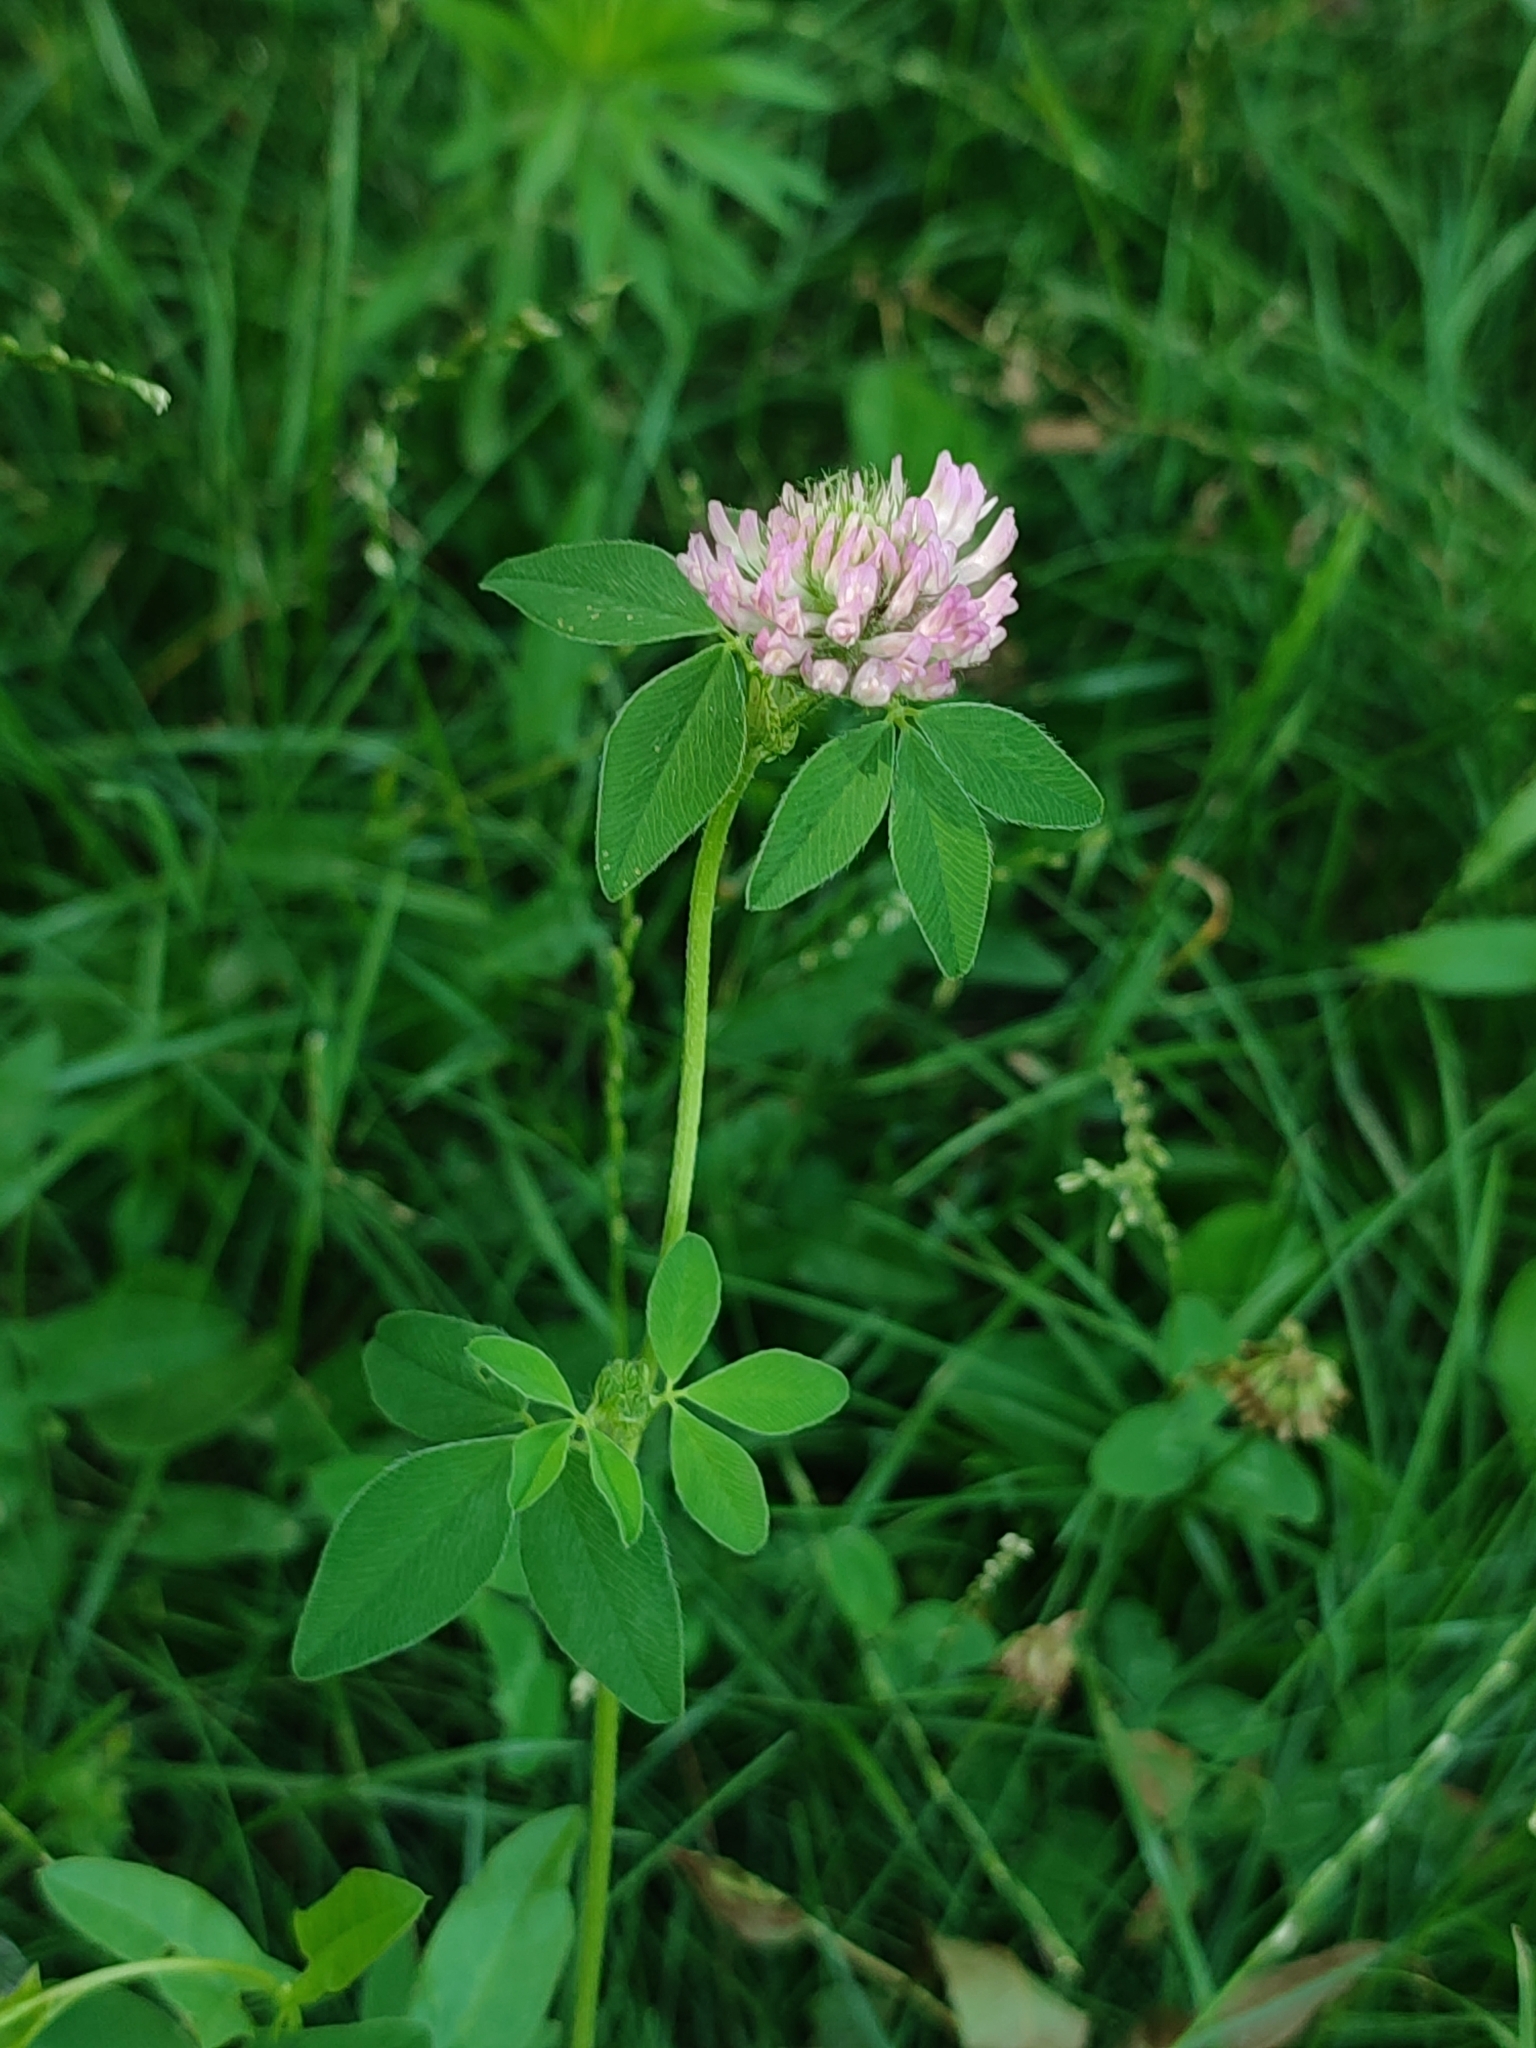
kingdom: Plantae
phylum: Tracheophyta
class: Magnoliopsida
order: Fabales
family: Fabaceae
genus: Trifolium
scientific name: Trifolium pratense
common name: Red clover
